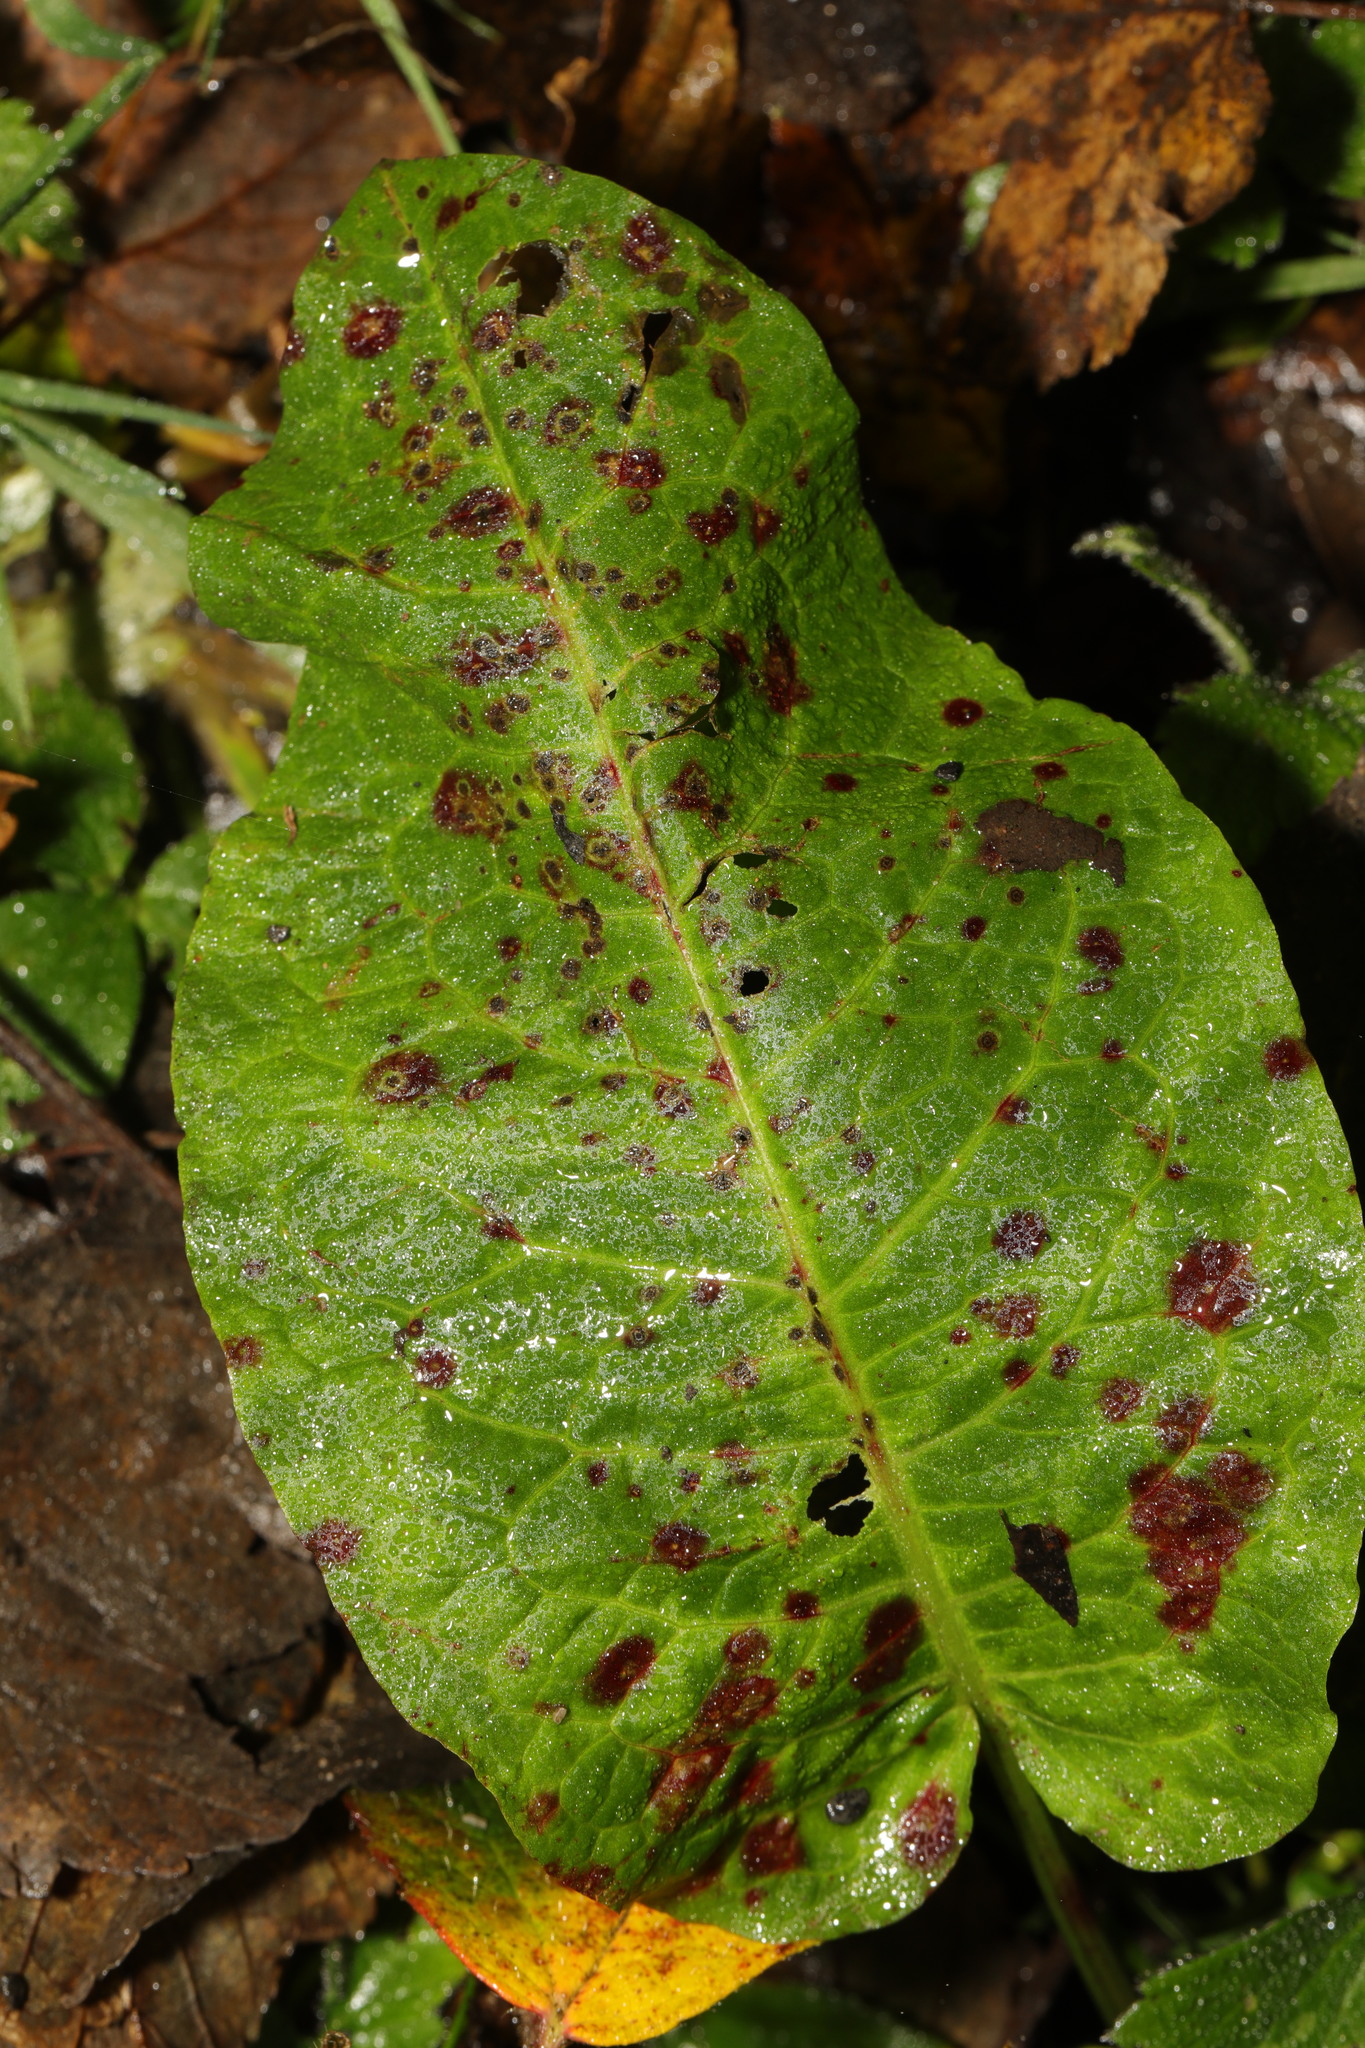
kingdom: Plantae
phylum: Tracheophyta
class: Magnoliopsida
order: Caryophyllales
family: Polygonaceae
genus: Rumex
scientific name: Rumex obtusifolius
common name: Bitter dock
